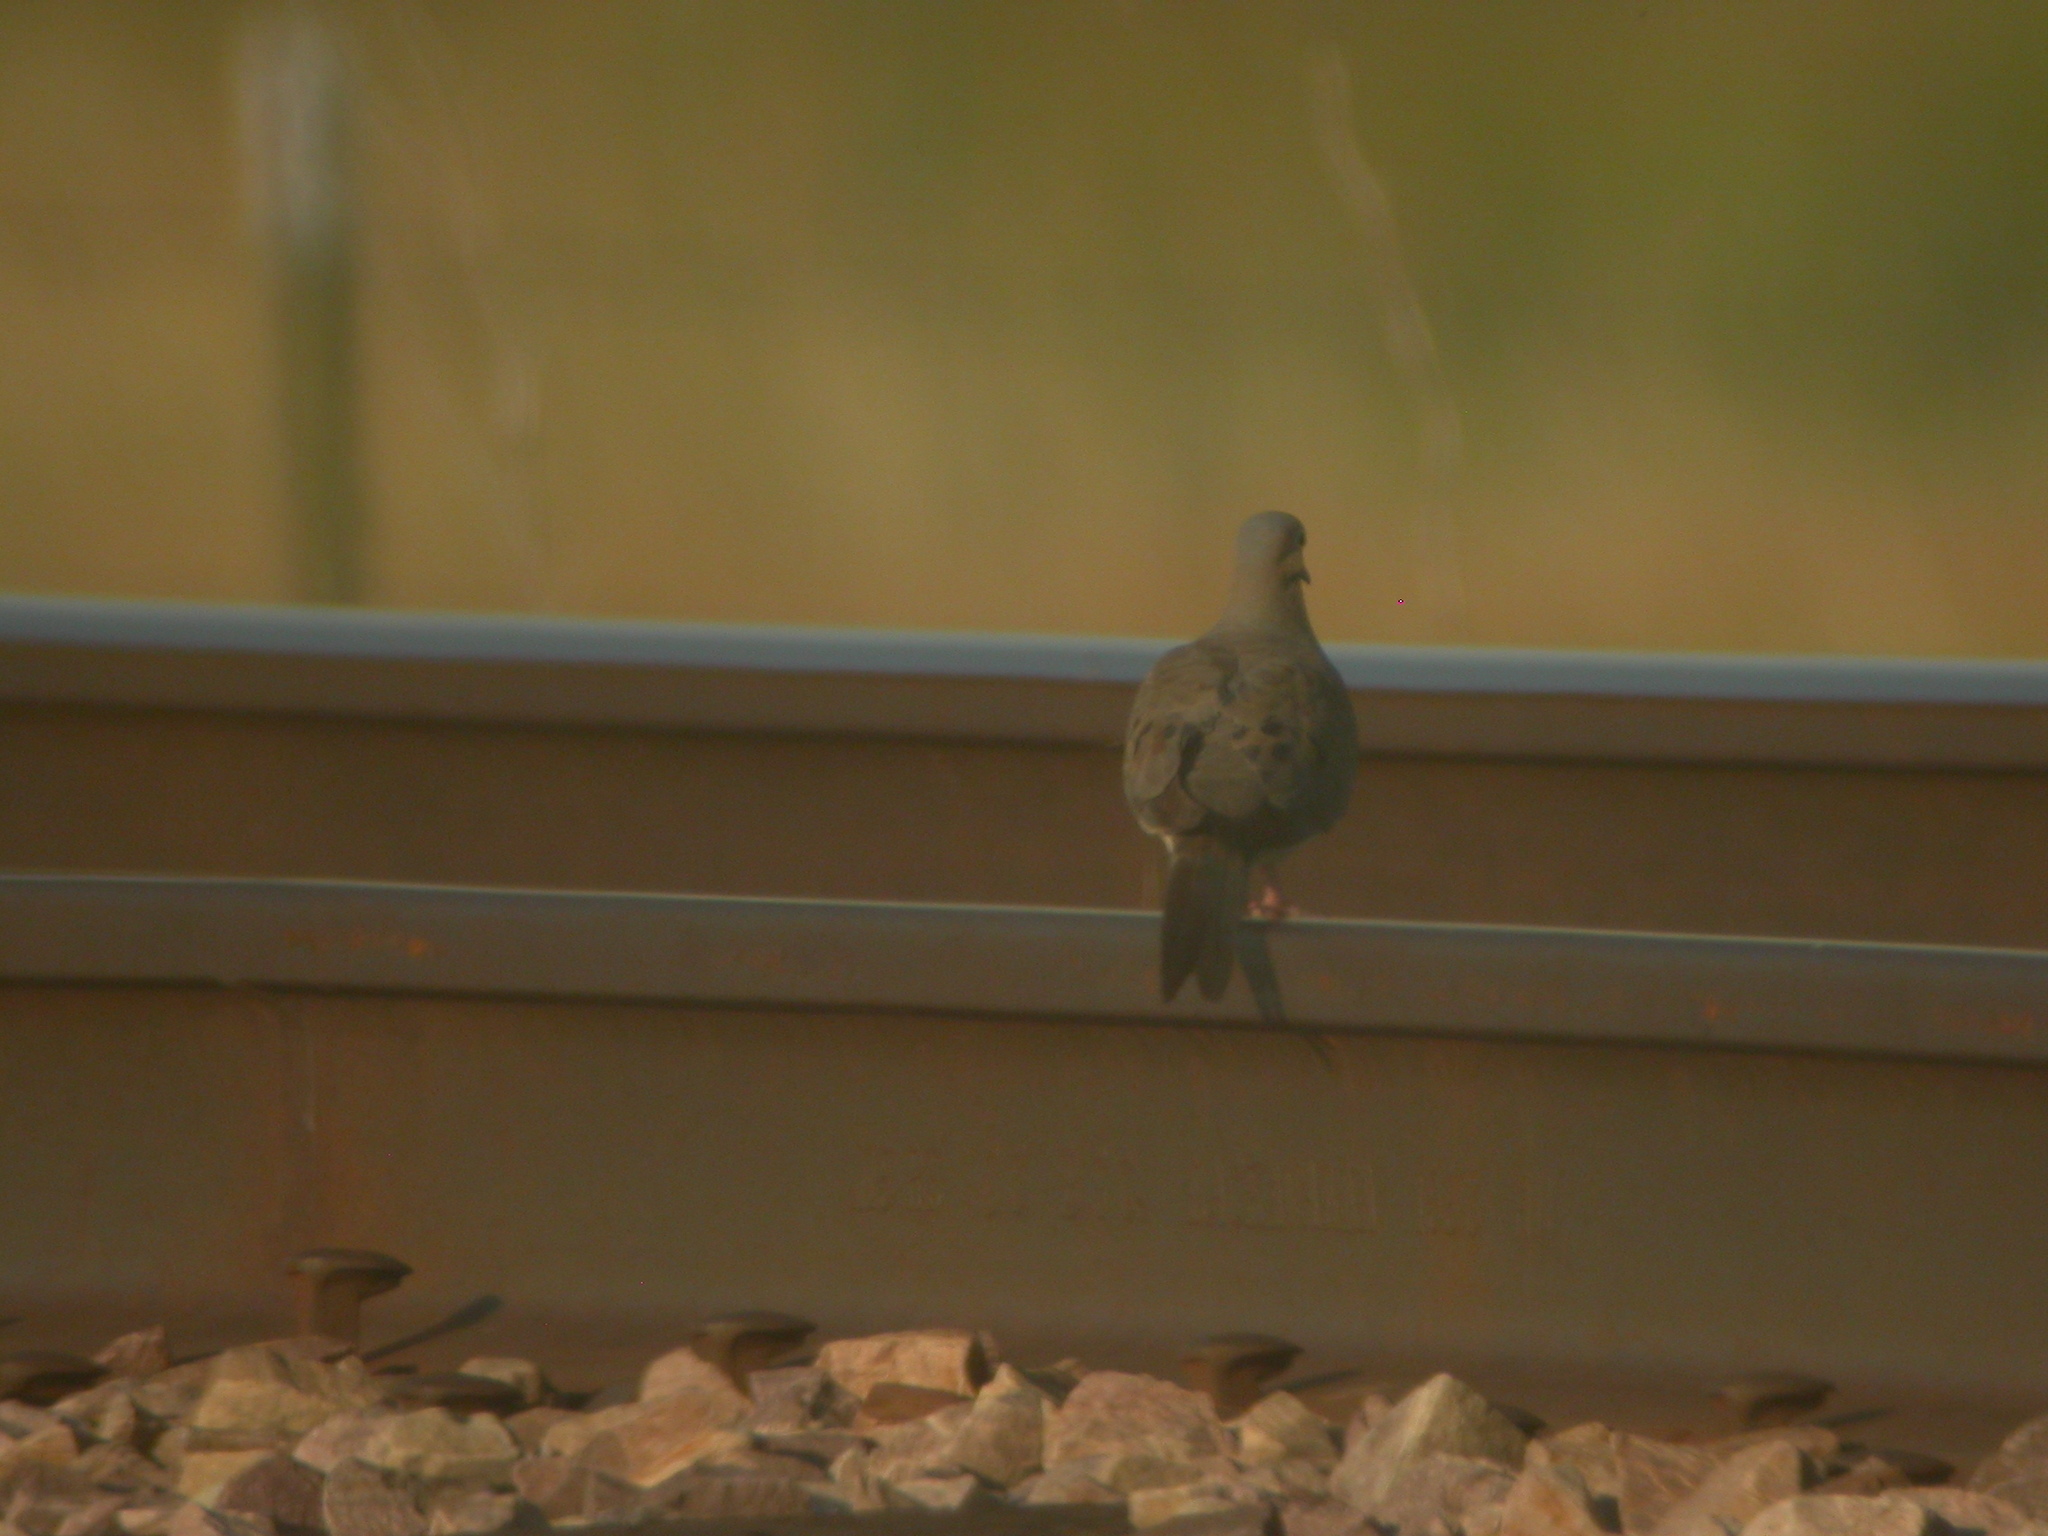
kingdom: Animalia
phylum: Chordata
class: Aves
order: Columbiformes
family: Columbidae
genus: Zenaida
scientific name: Zenaida macroura
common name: Mourning dove
